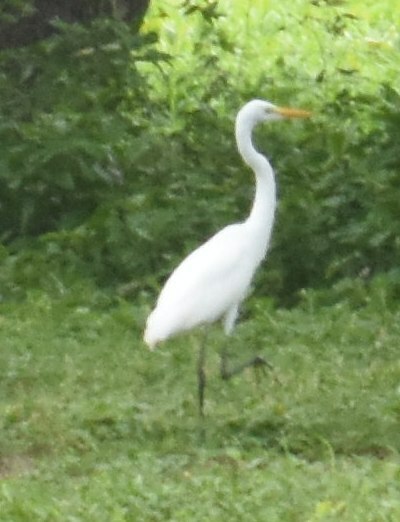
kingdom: Animalia
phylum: Chordata
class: Aves
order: Pelecaniformes
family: Ardeidae
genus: Ardea
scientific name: Ardea alba
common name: Great egret
